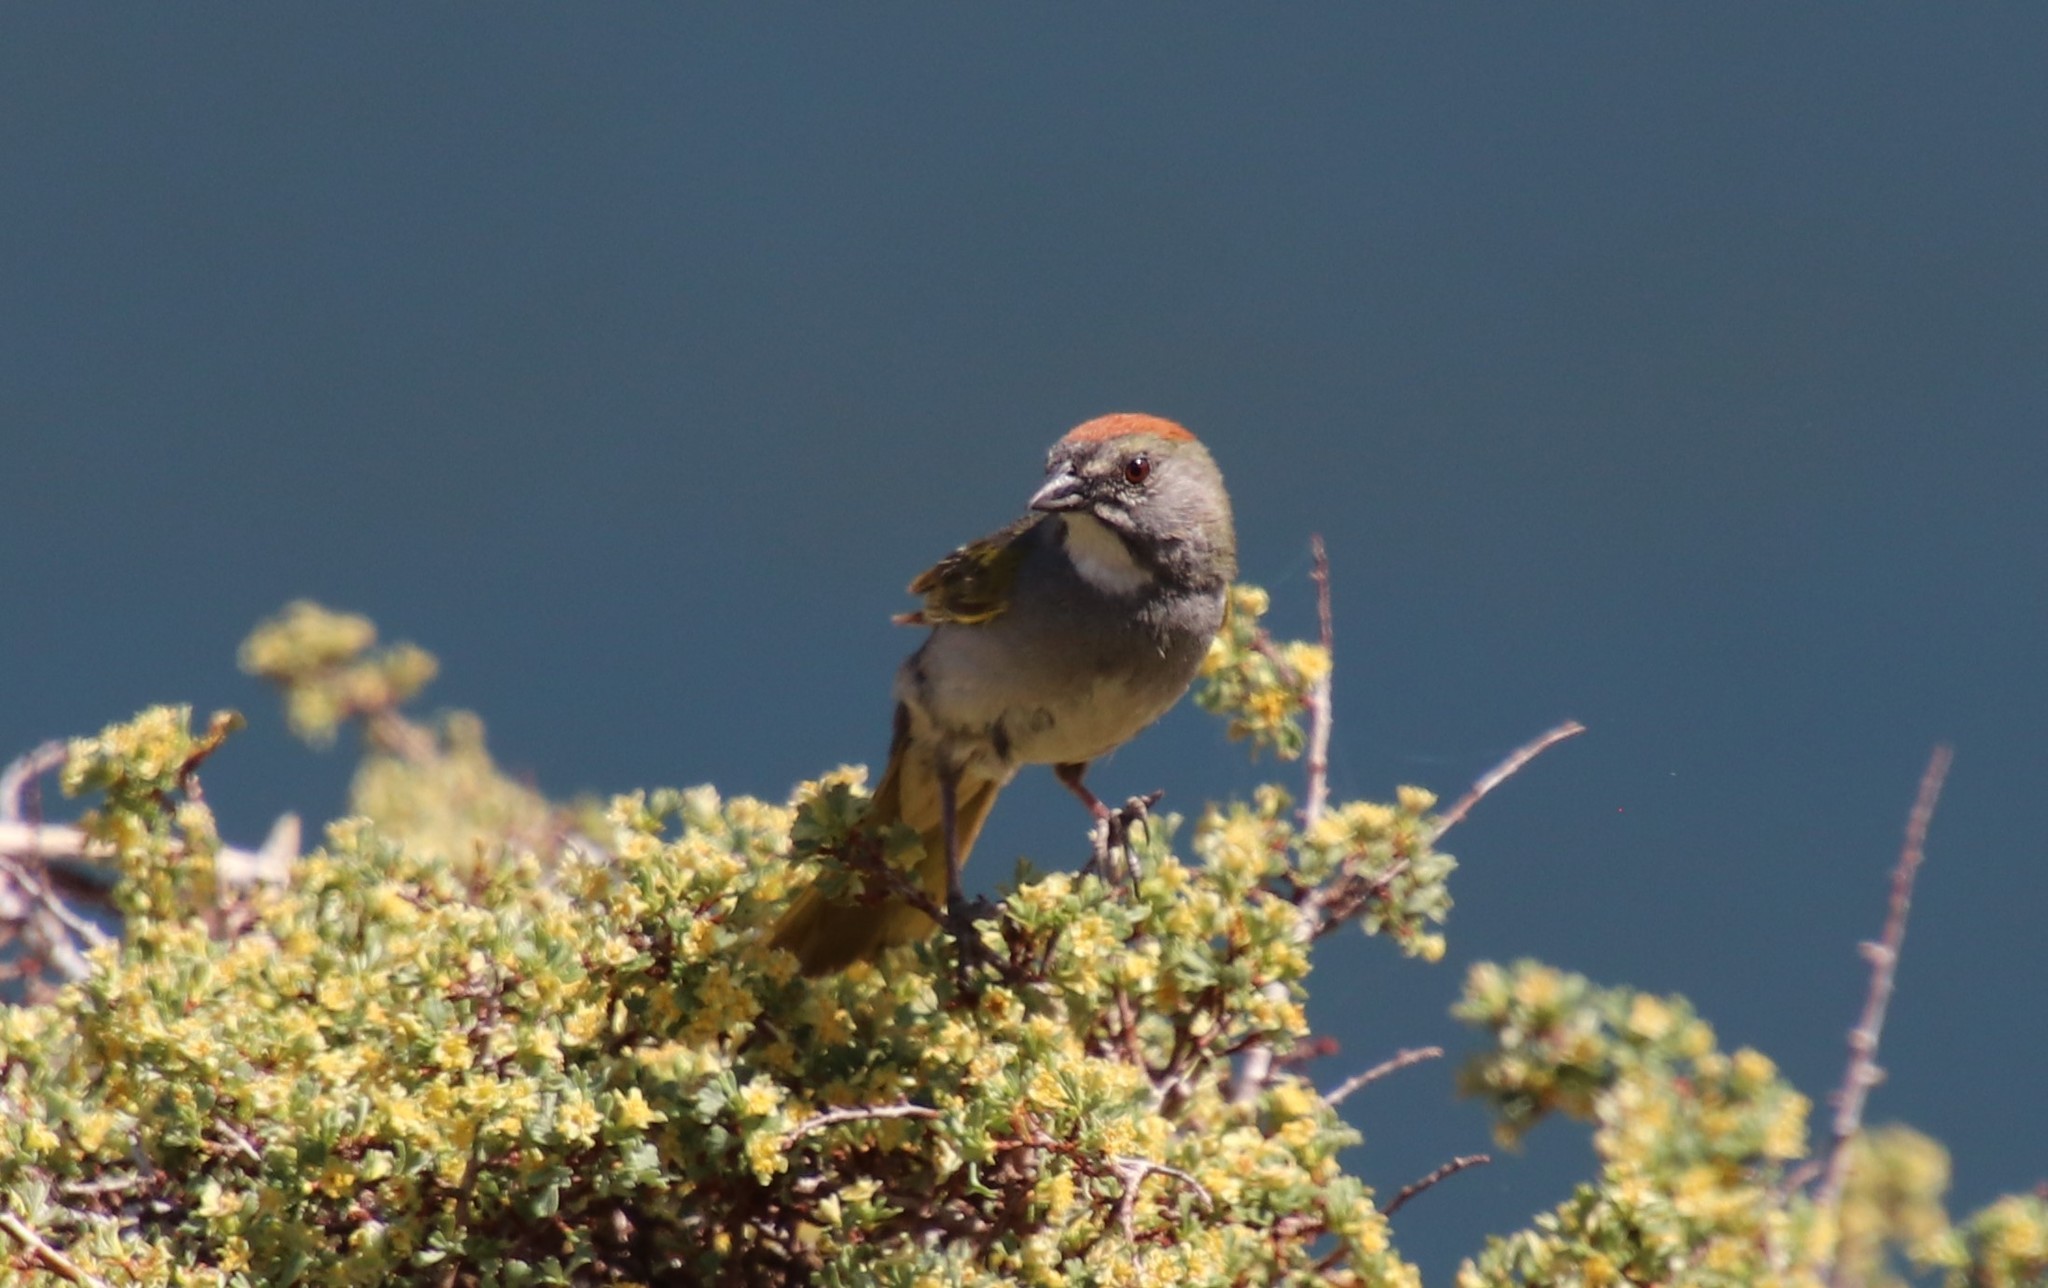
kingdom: Animalia
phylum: Chordata
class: Aves
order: Passeriformes
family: Passerellidae
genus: Pipilo
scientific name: Pipilo chlorurus
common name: Green-tailed towhee
